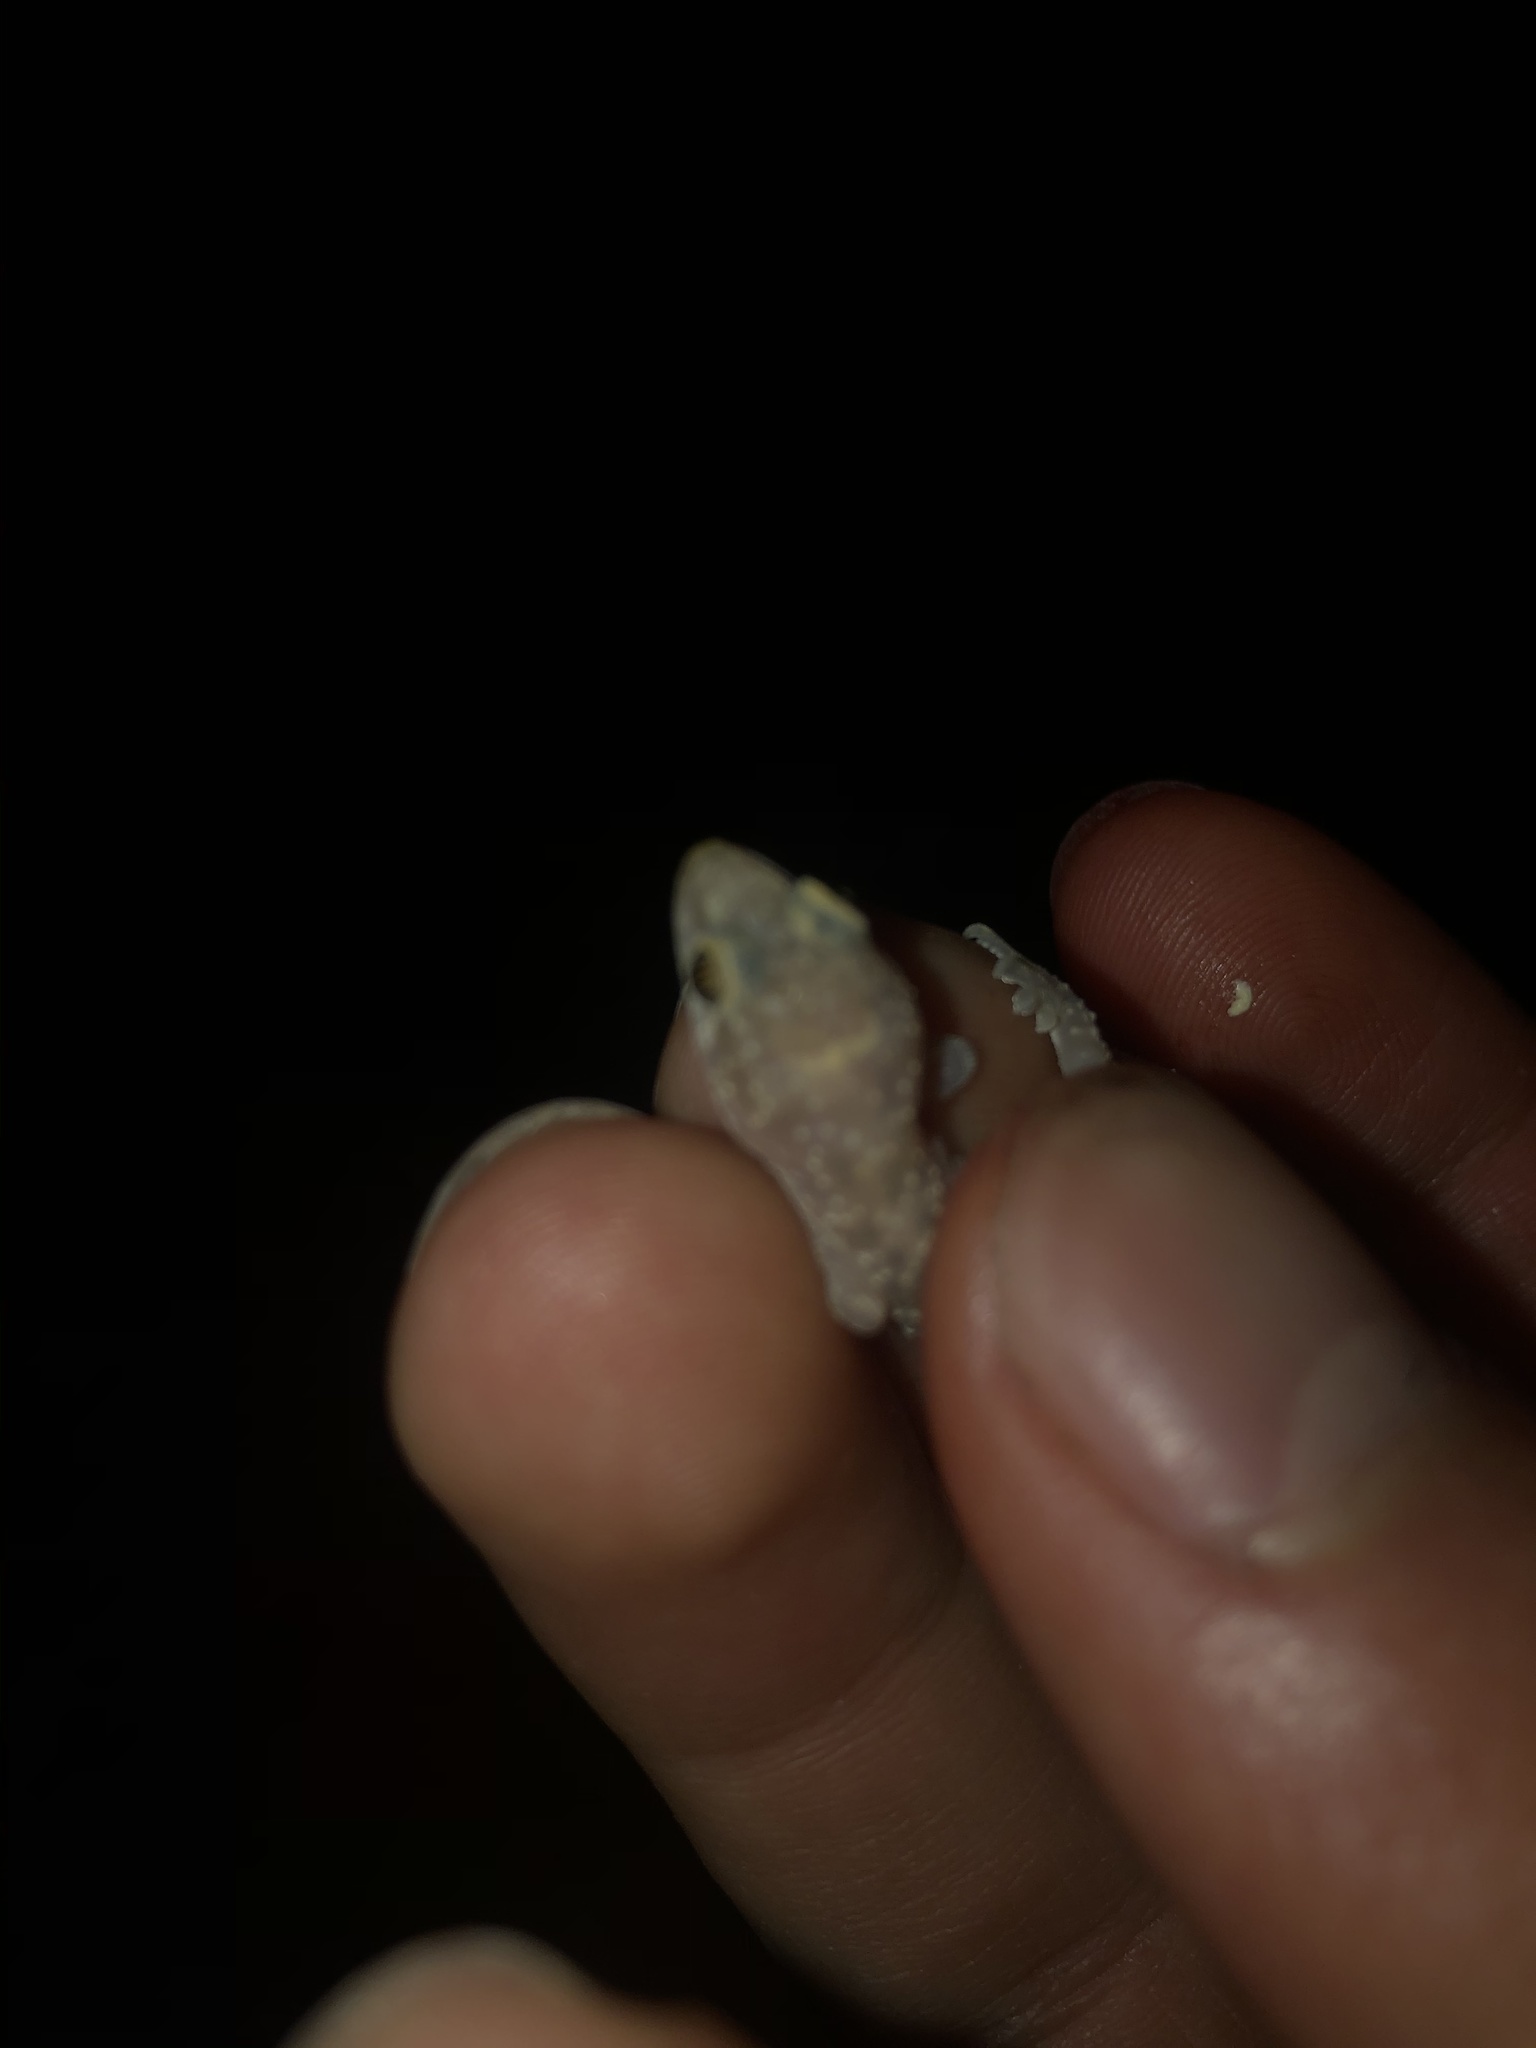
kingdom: Animalia
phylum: Chordata
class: Squamata
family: Gekkonidae
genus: Hemidactylus
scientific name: Hemidactylus turcicus
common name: Turkish gecko
